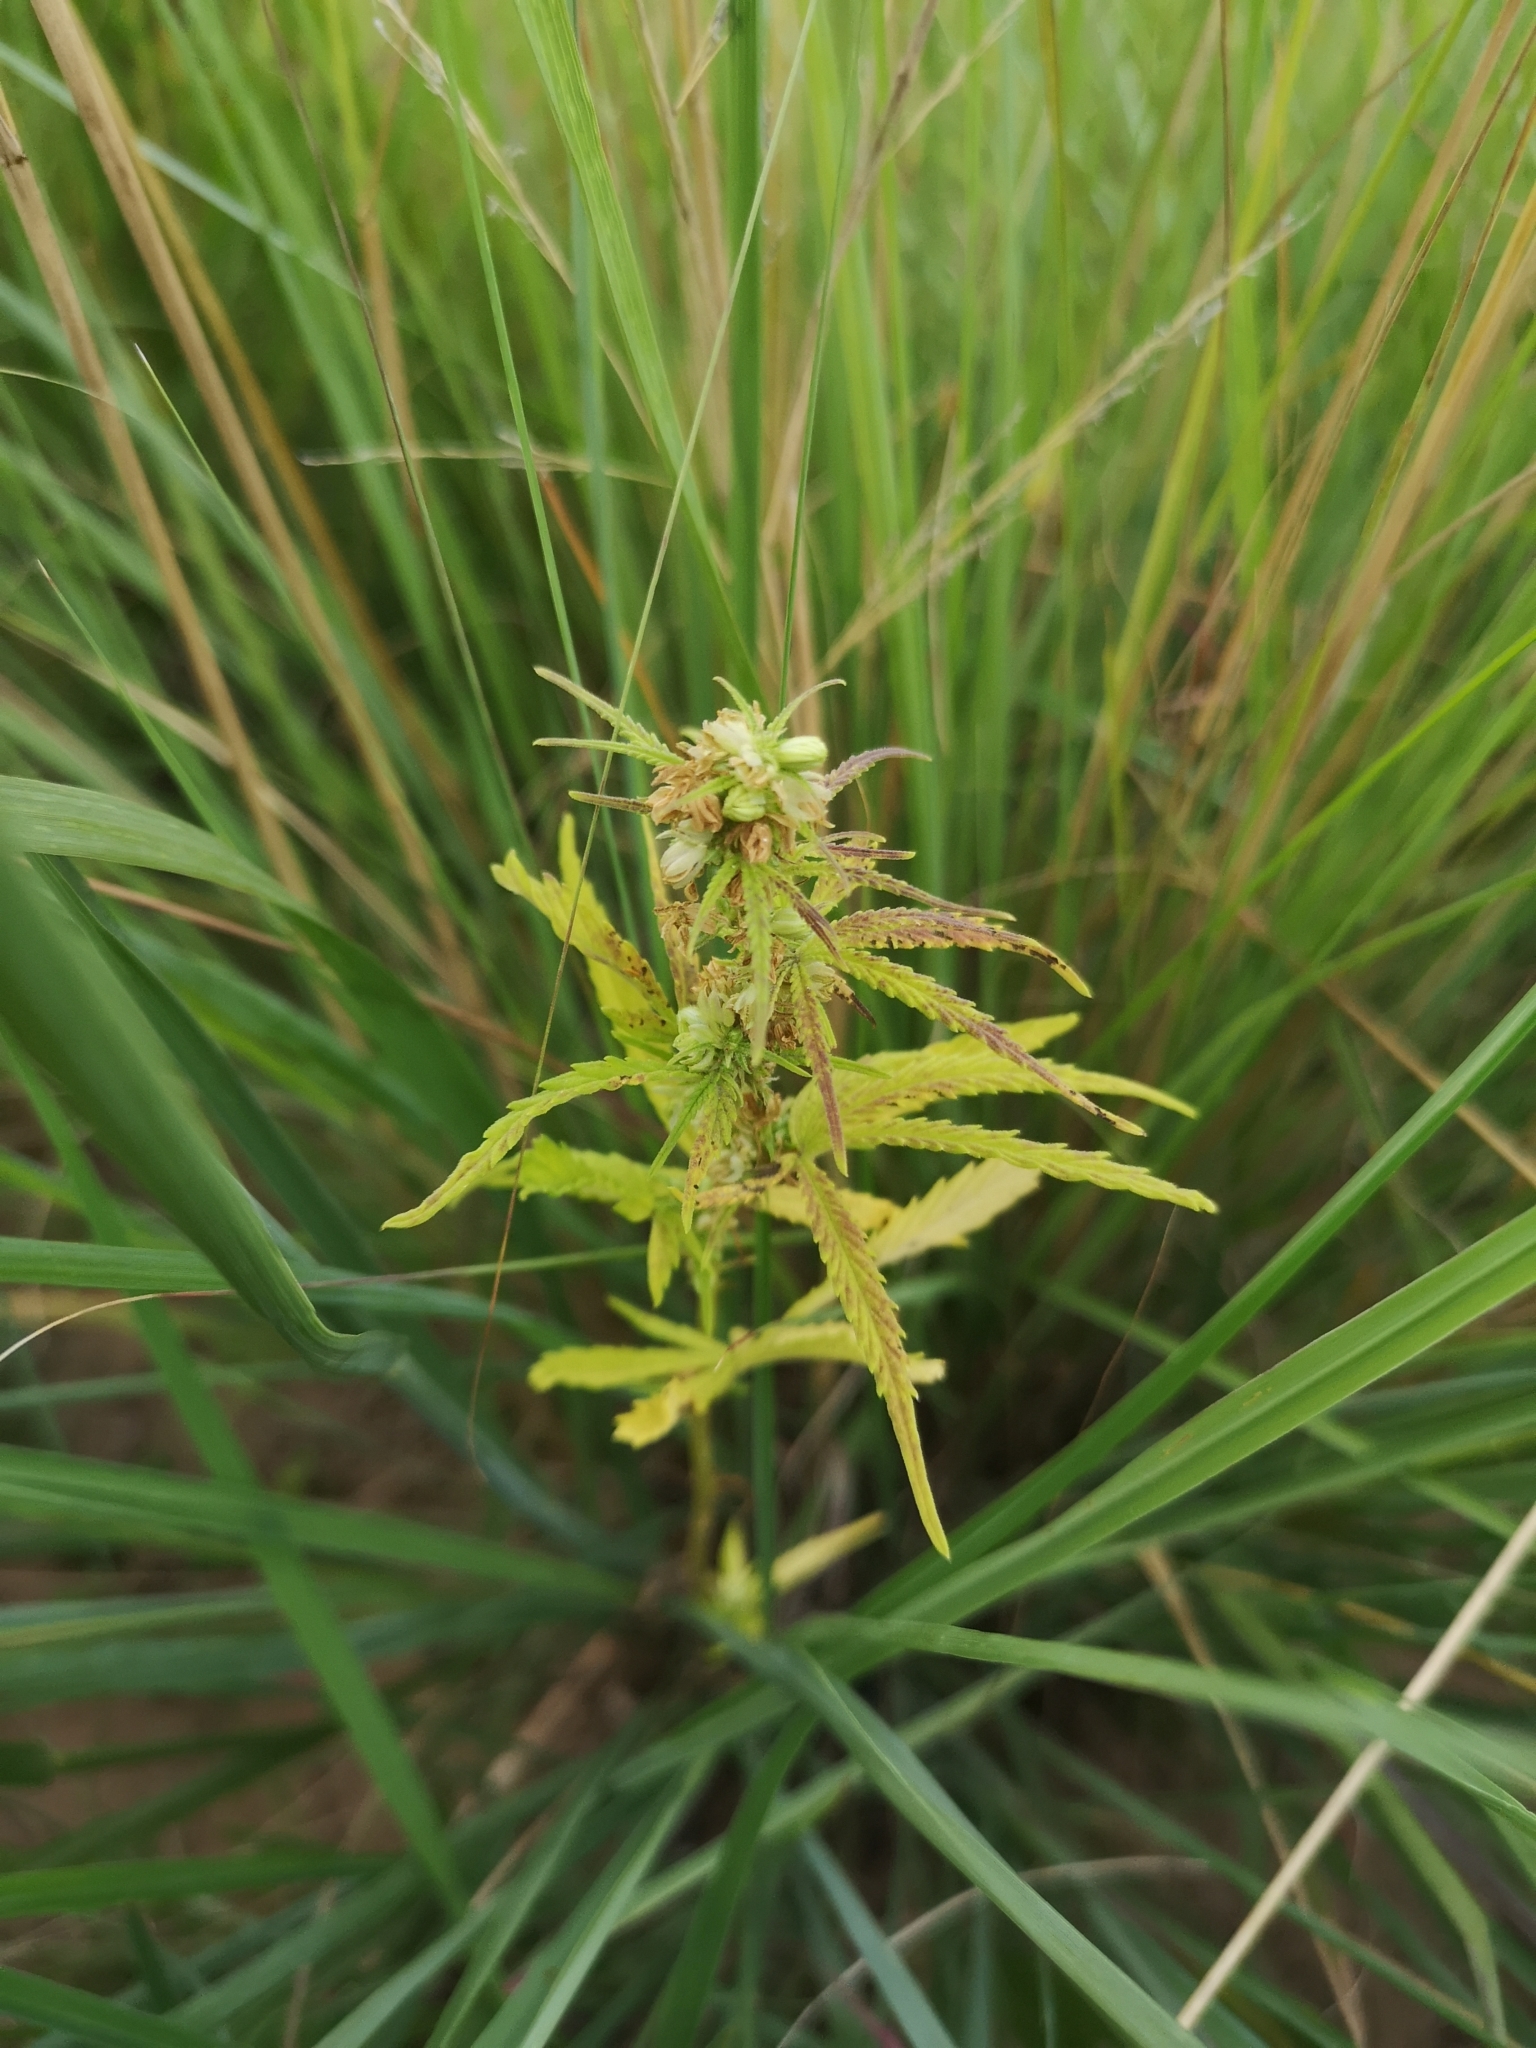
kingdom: Plantae
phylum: Tracheophyta
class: Magnoliopsida
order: Rosales
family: Cannabaceae
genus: Cannabis
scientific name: Cannabis sativa
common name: Hemp
